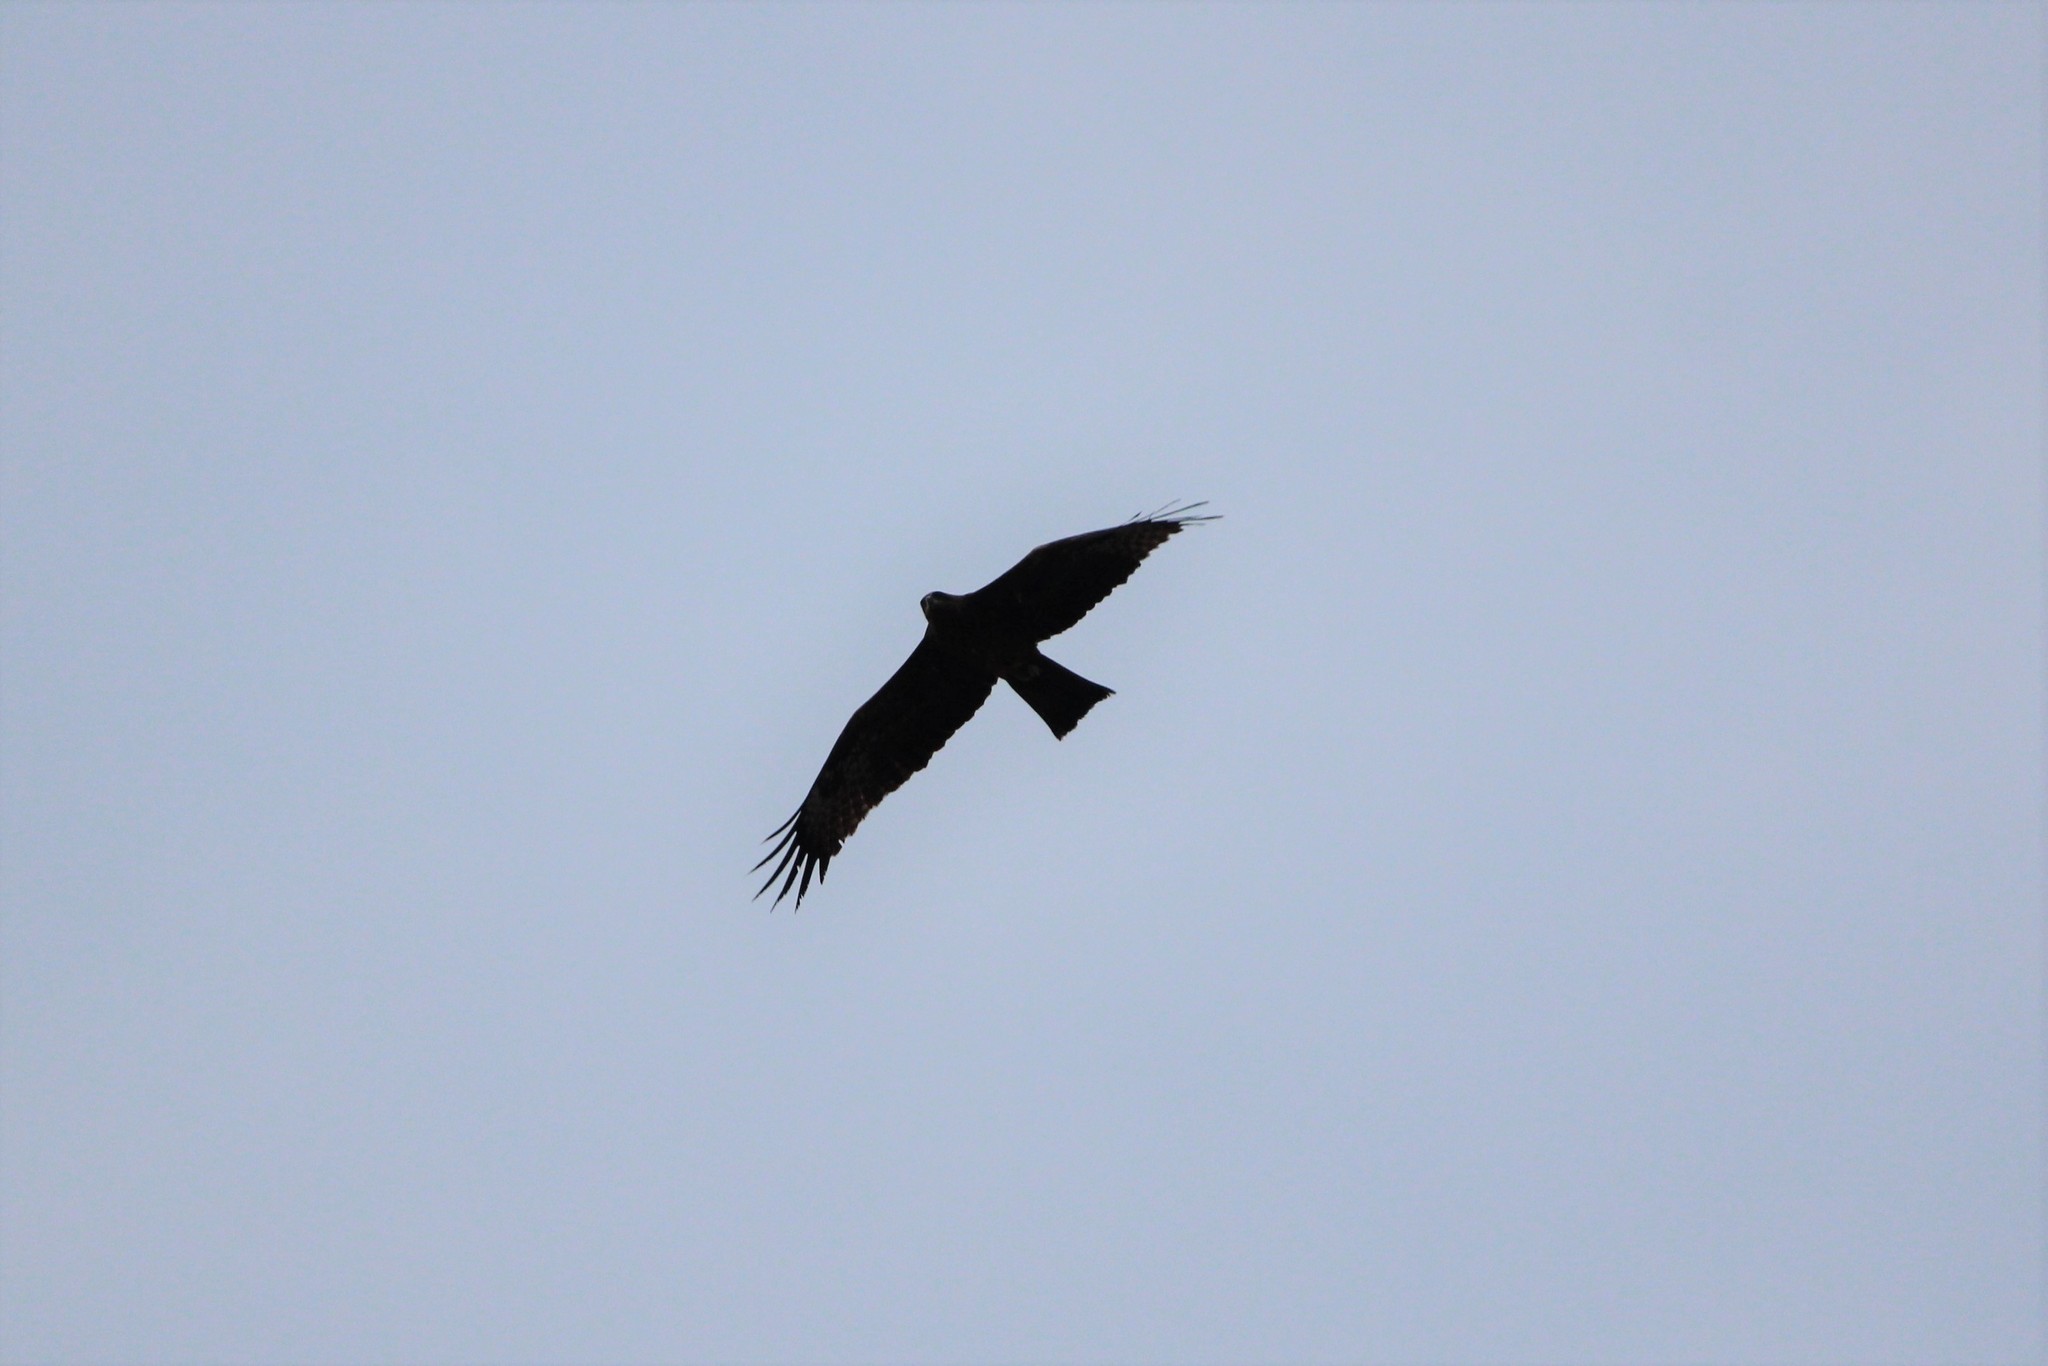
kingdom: Animalia
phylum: Chordata
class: Aves
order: Accipitriformes
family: Accipitridae
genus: Milvus
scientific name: Milvus migrans
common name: Black kite
